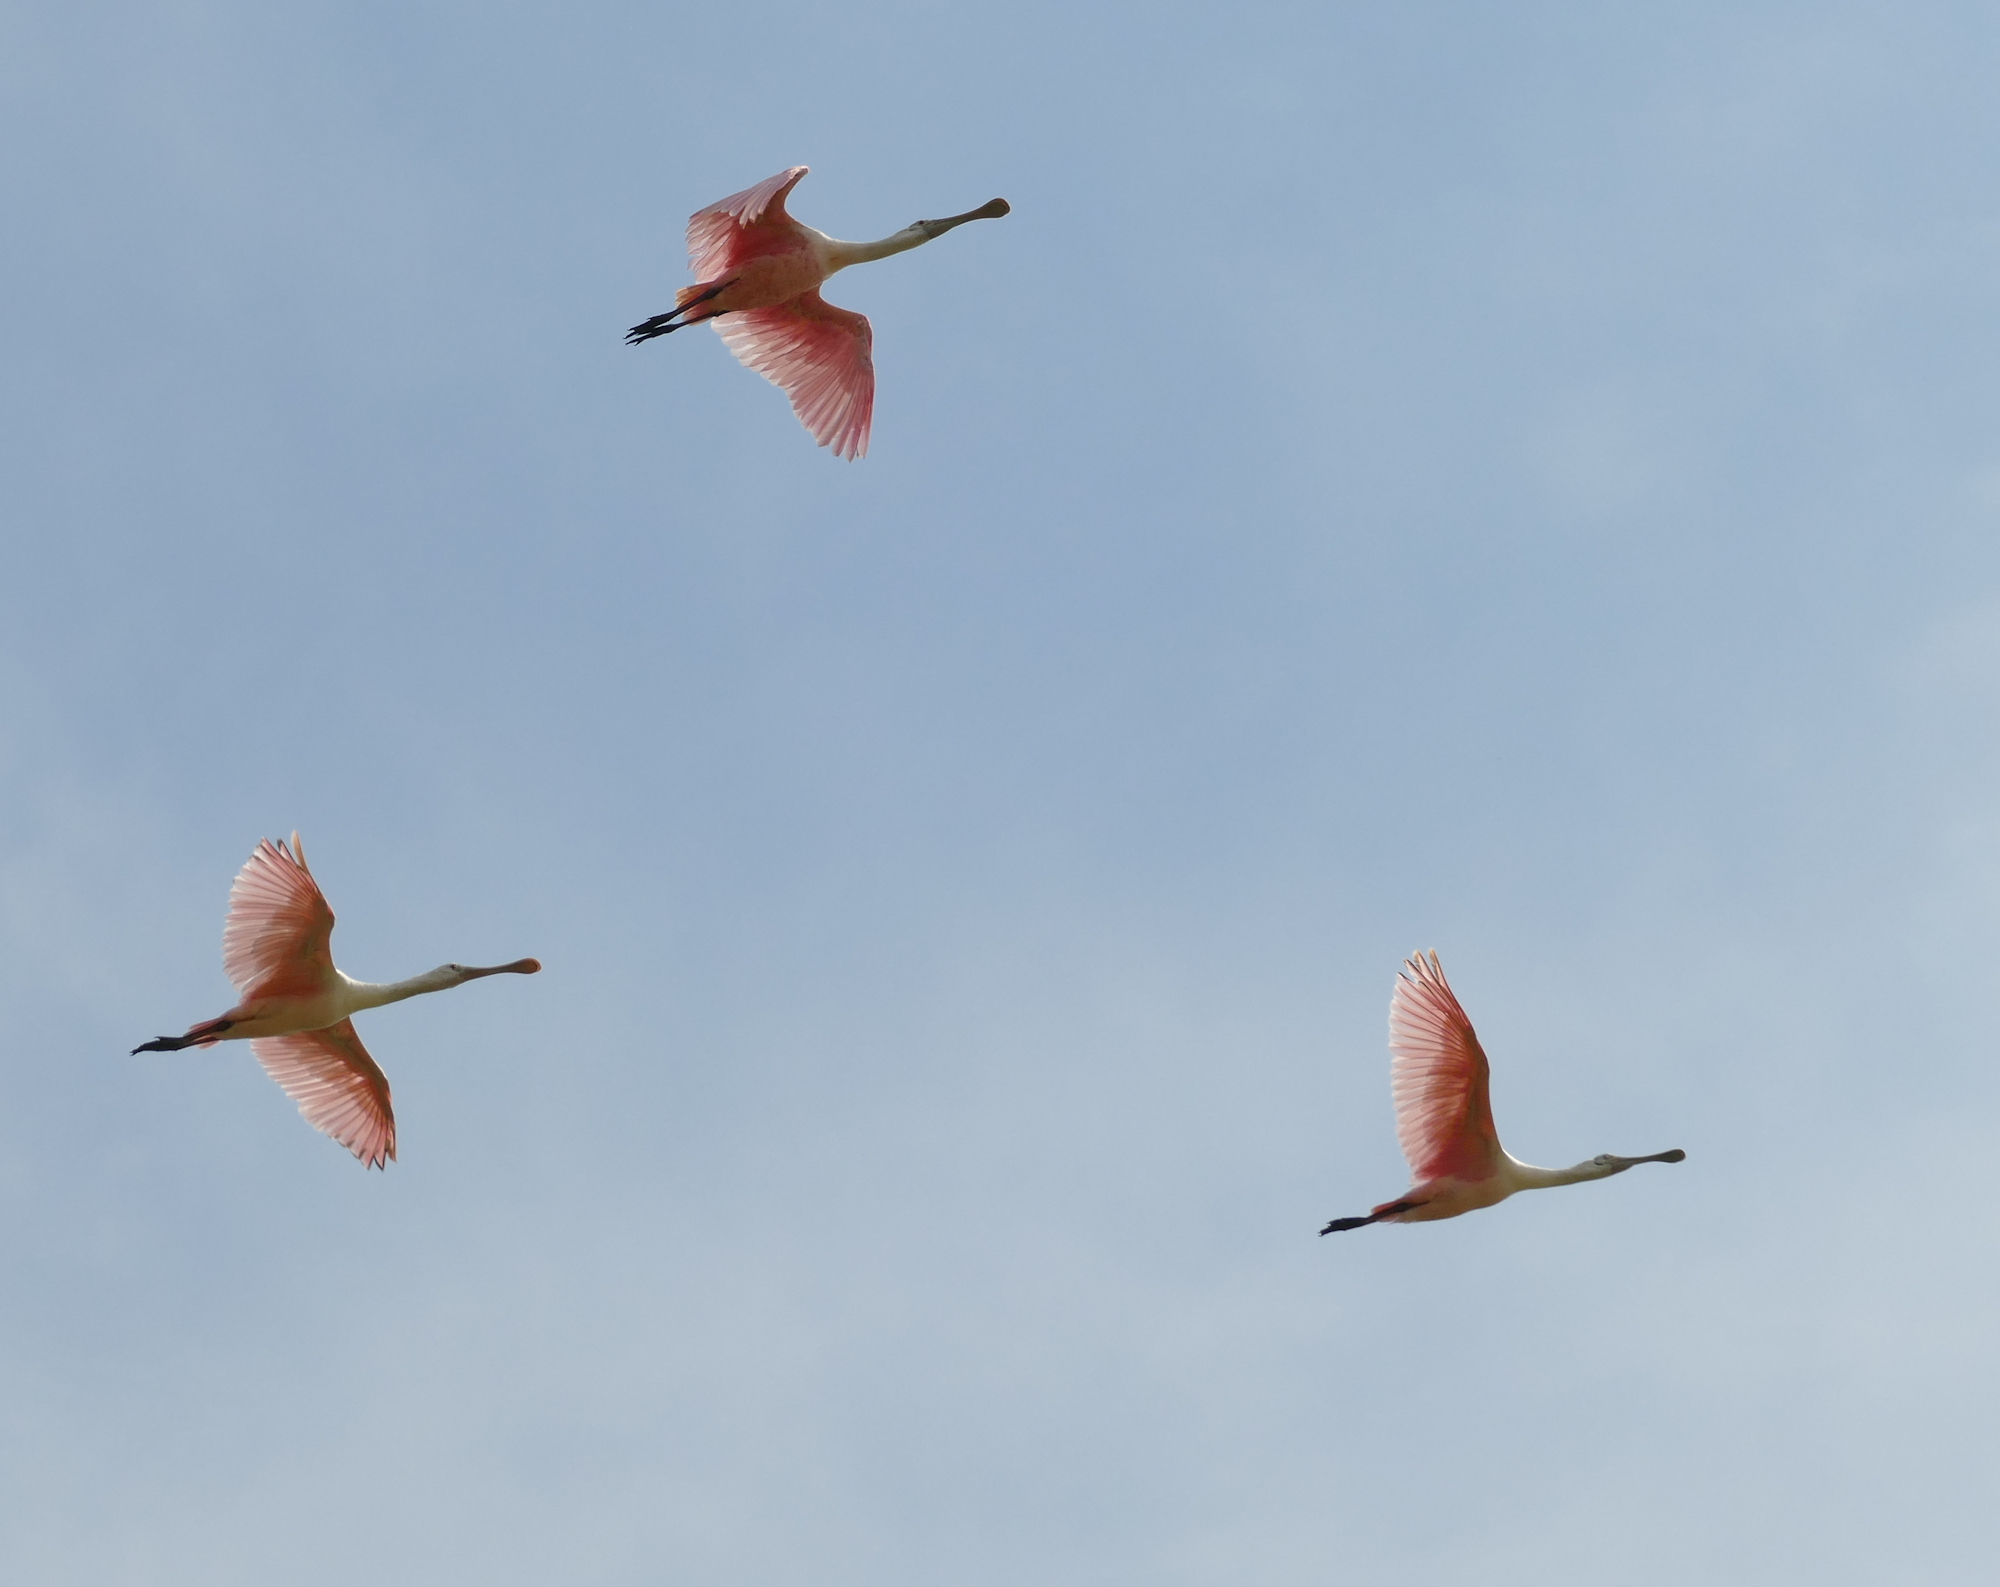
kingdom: Animalia
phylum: Chordata
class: Aves
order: Pelecaniformes
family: Threskiornithidae
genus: Platalea
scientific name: Platalea ajaja
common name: Roseate spoonbill
